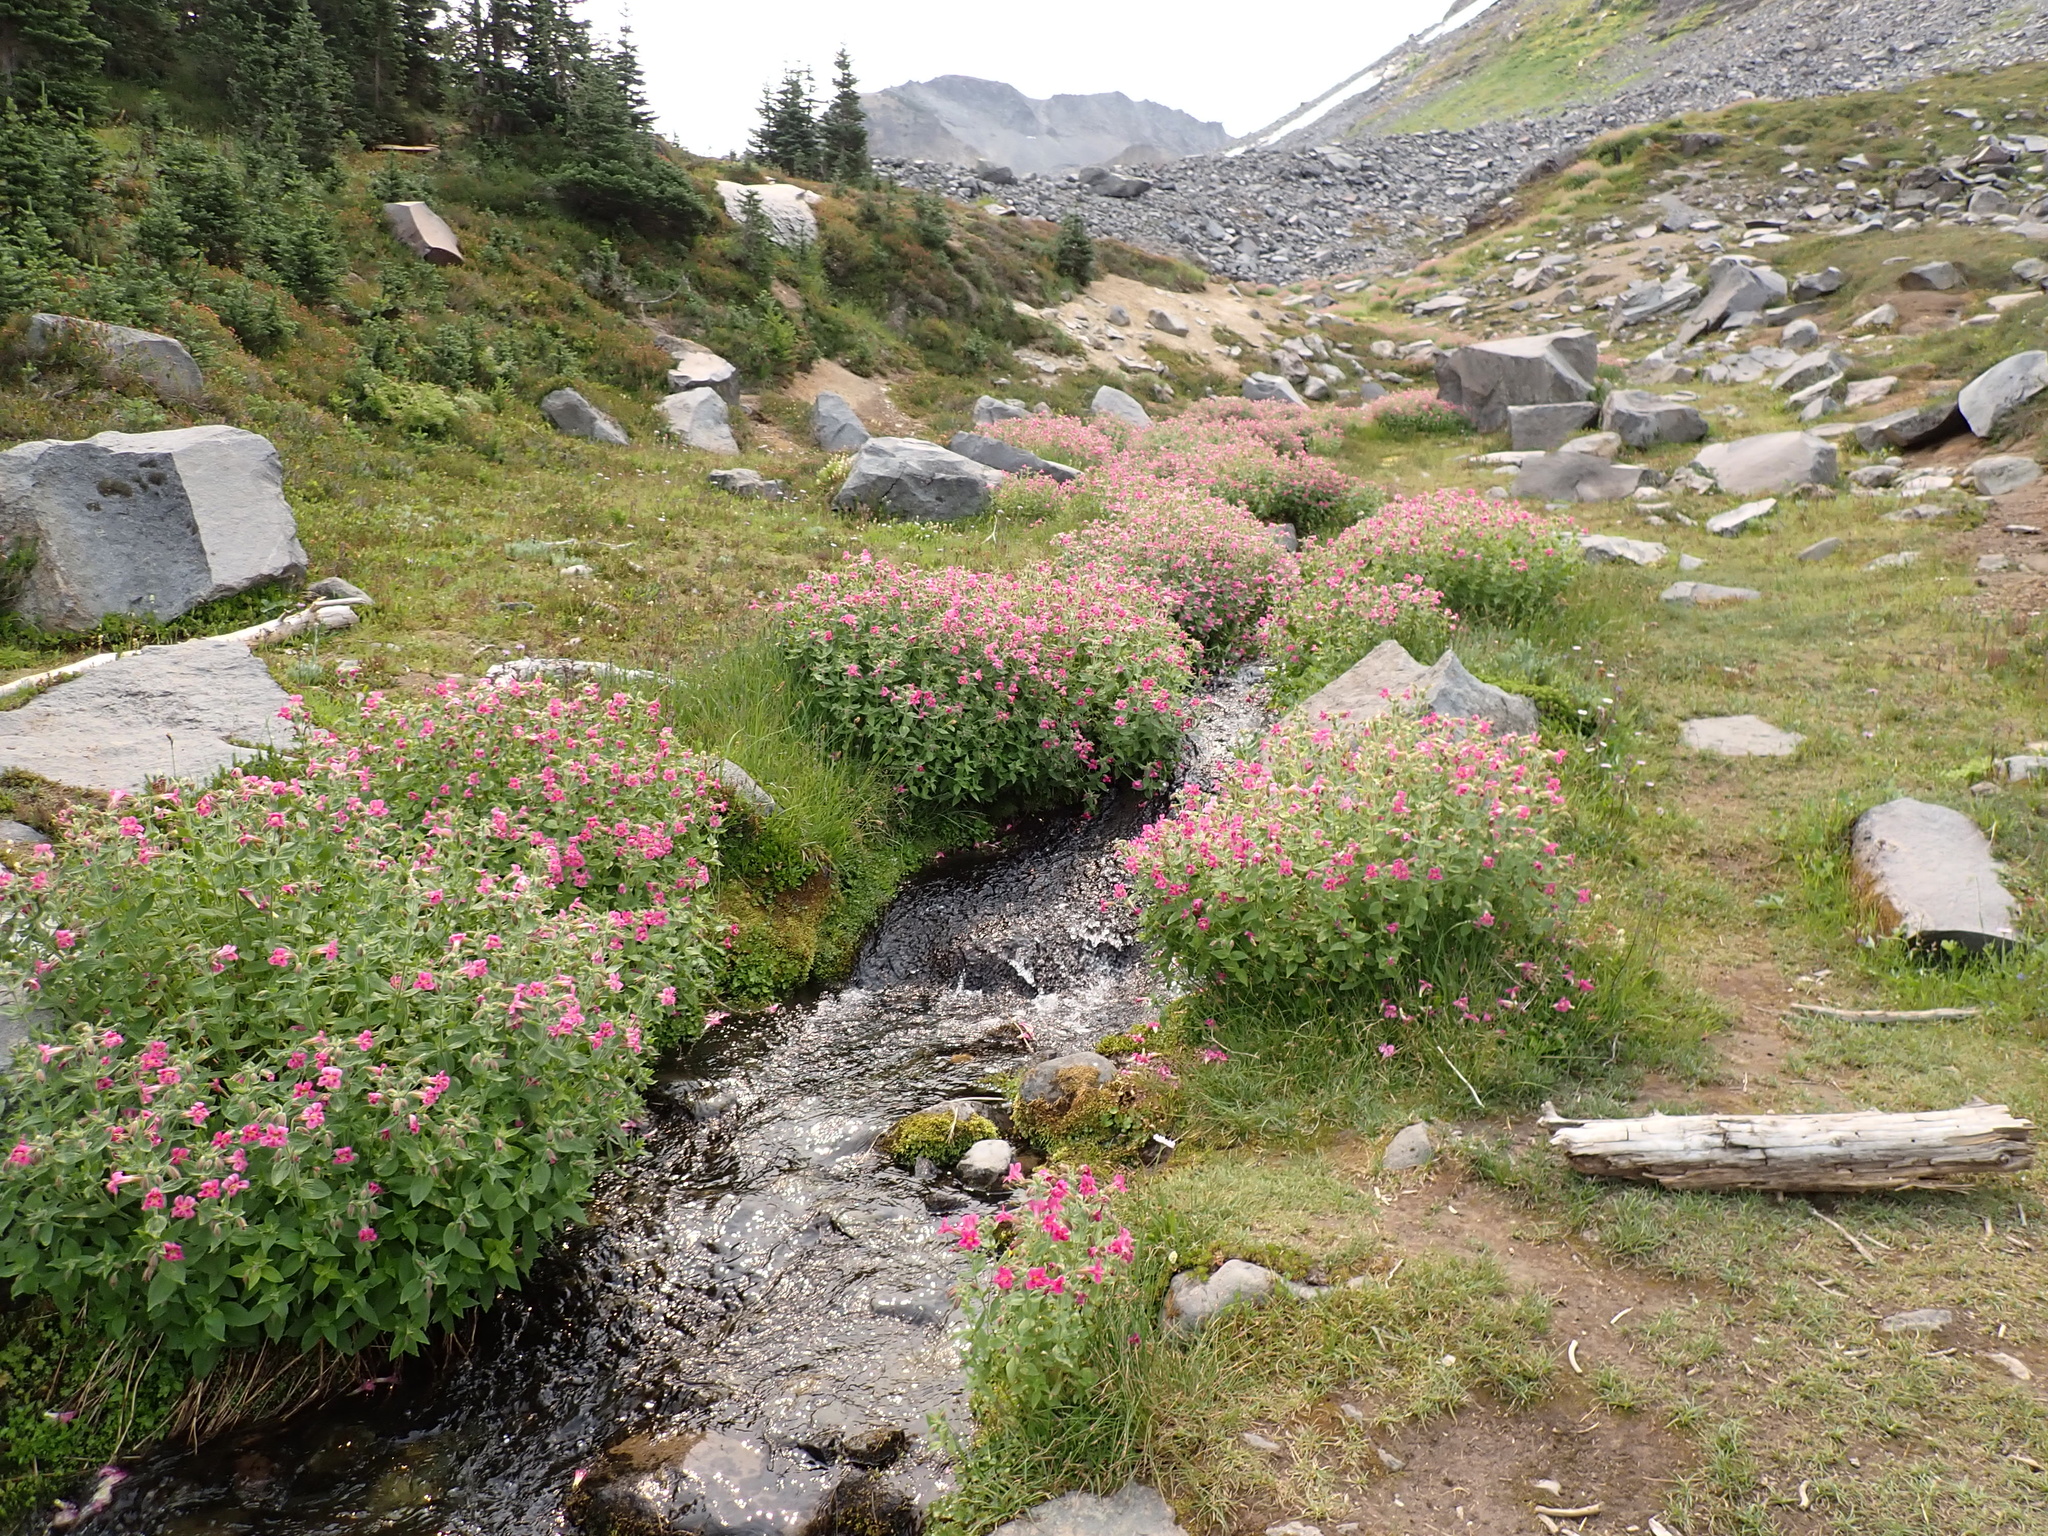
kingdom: Plantae
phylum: Tracheophyta
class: Magnoliopsida
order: Lamiales
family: Phrymaceae
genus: Erythranthe
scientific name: Erythranthe lewisii
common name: Lewis's monkey-flower
